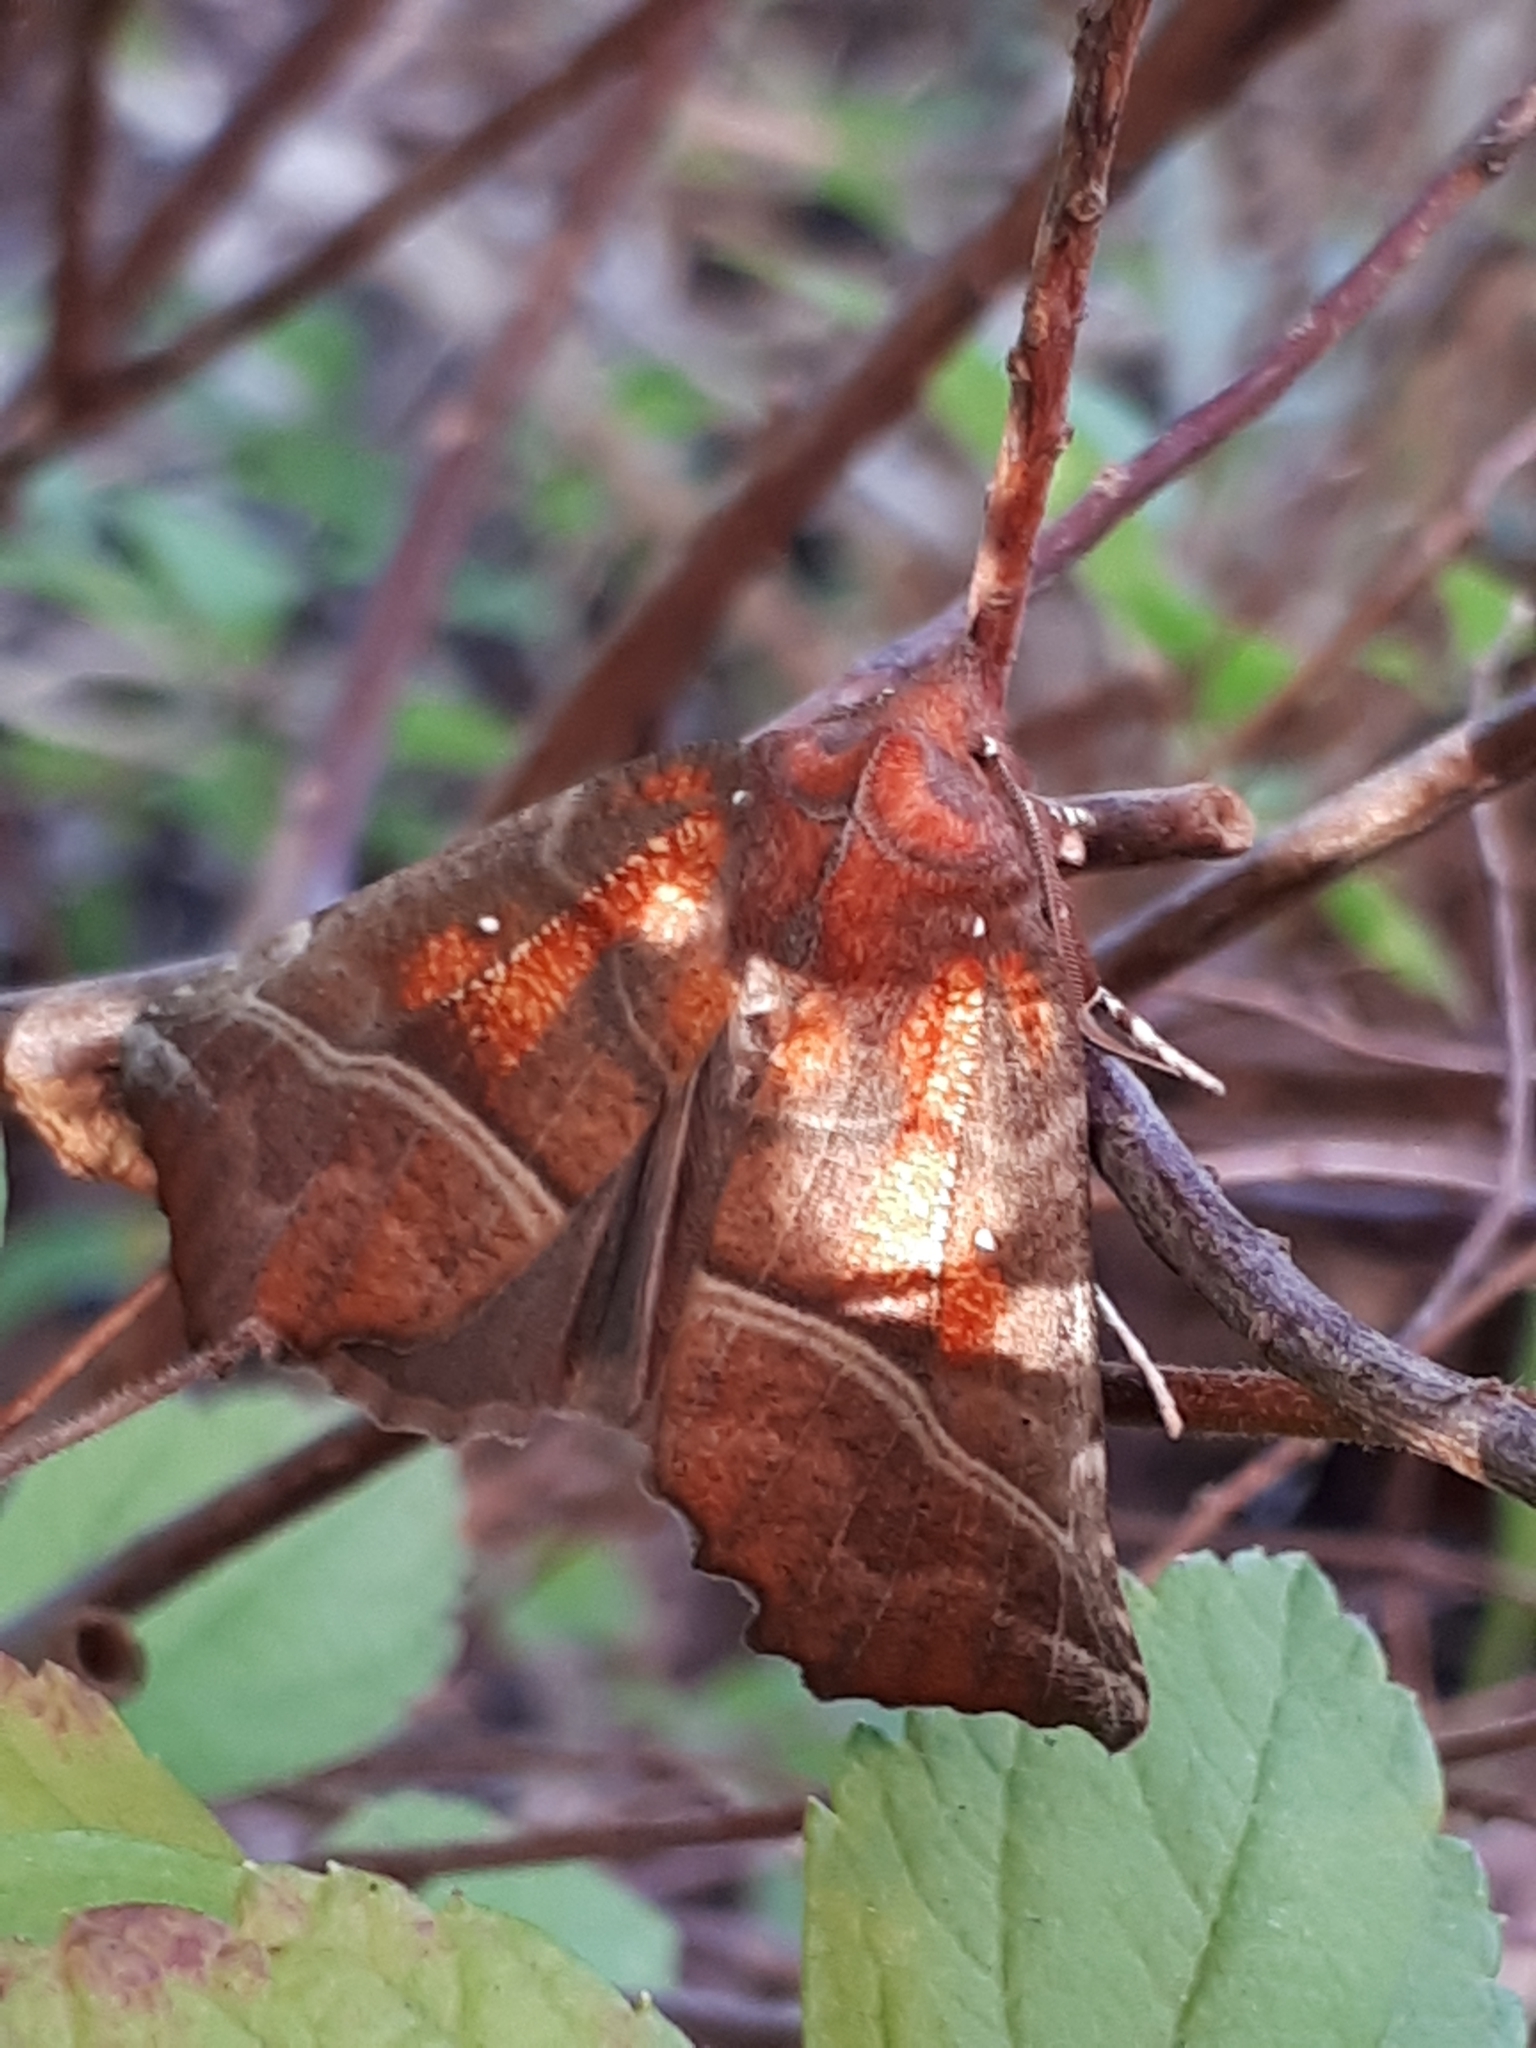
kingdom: Animalia
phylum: Arthropoda
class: Insecta
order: Lepidoptera
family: Erebidae
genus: Scoliopteryx
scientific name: Scoliopteryx libatrix
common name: Herald
